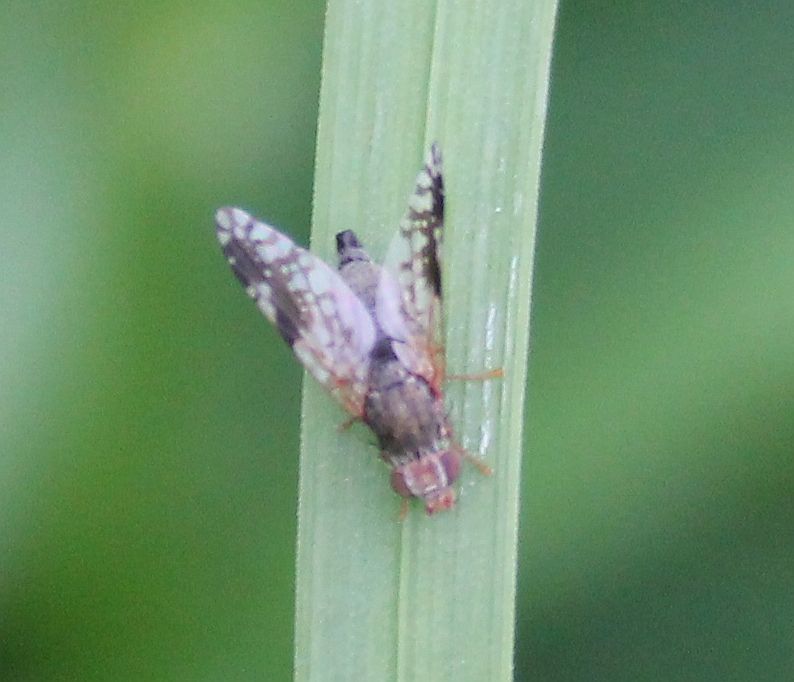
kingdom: Animalia
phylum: Arthropoda
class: Insecta
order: Diptera
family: Tephritidae
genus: Tephritis
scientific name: Tephritis neesii
